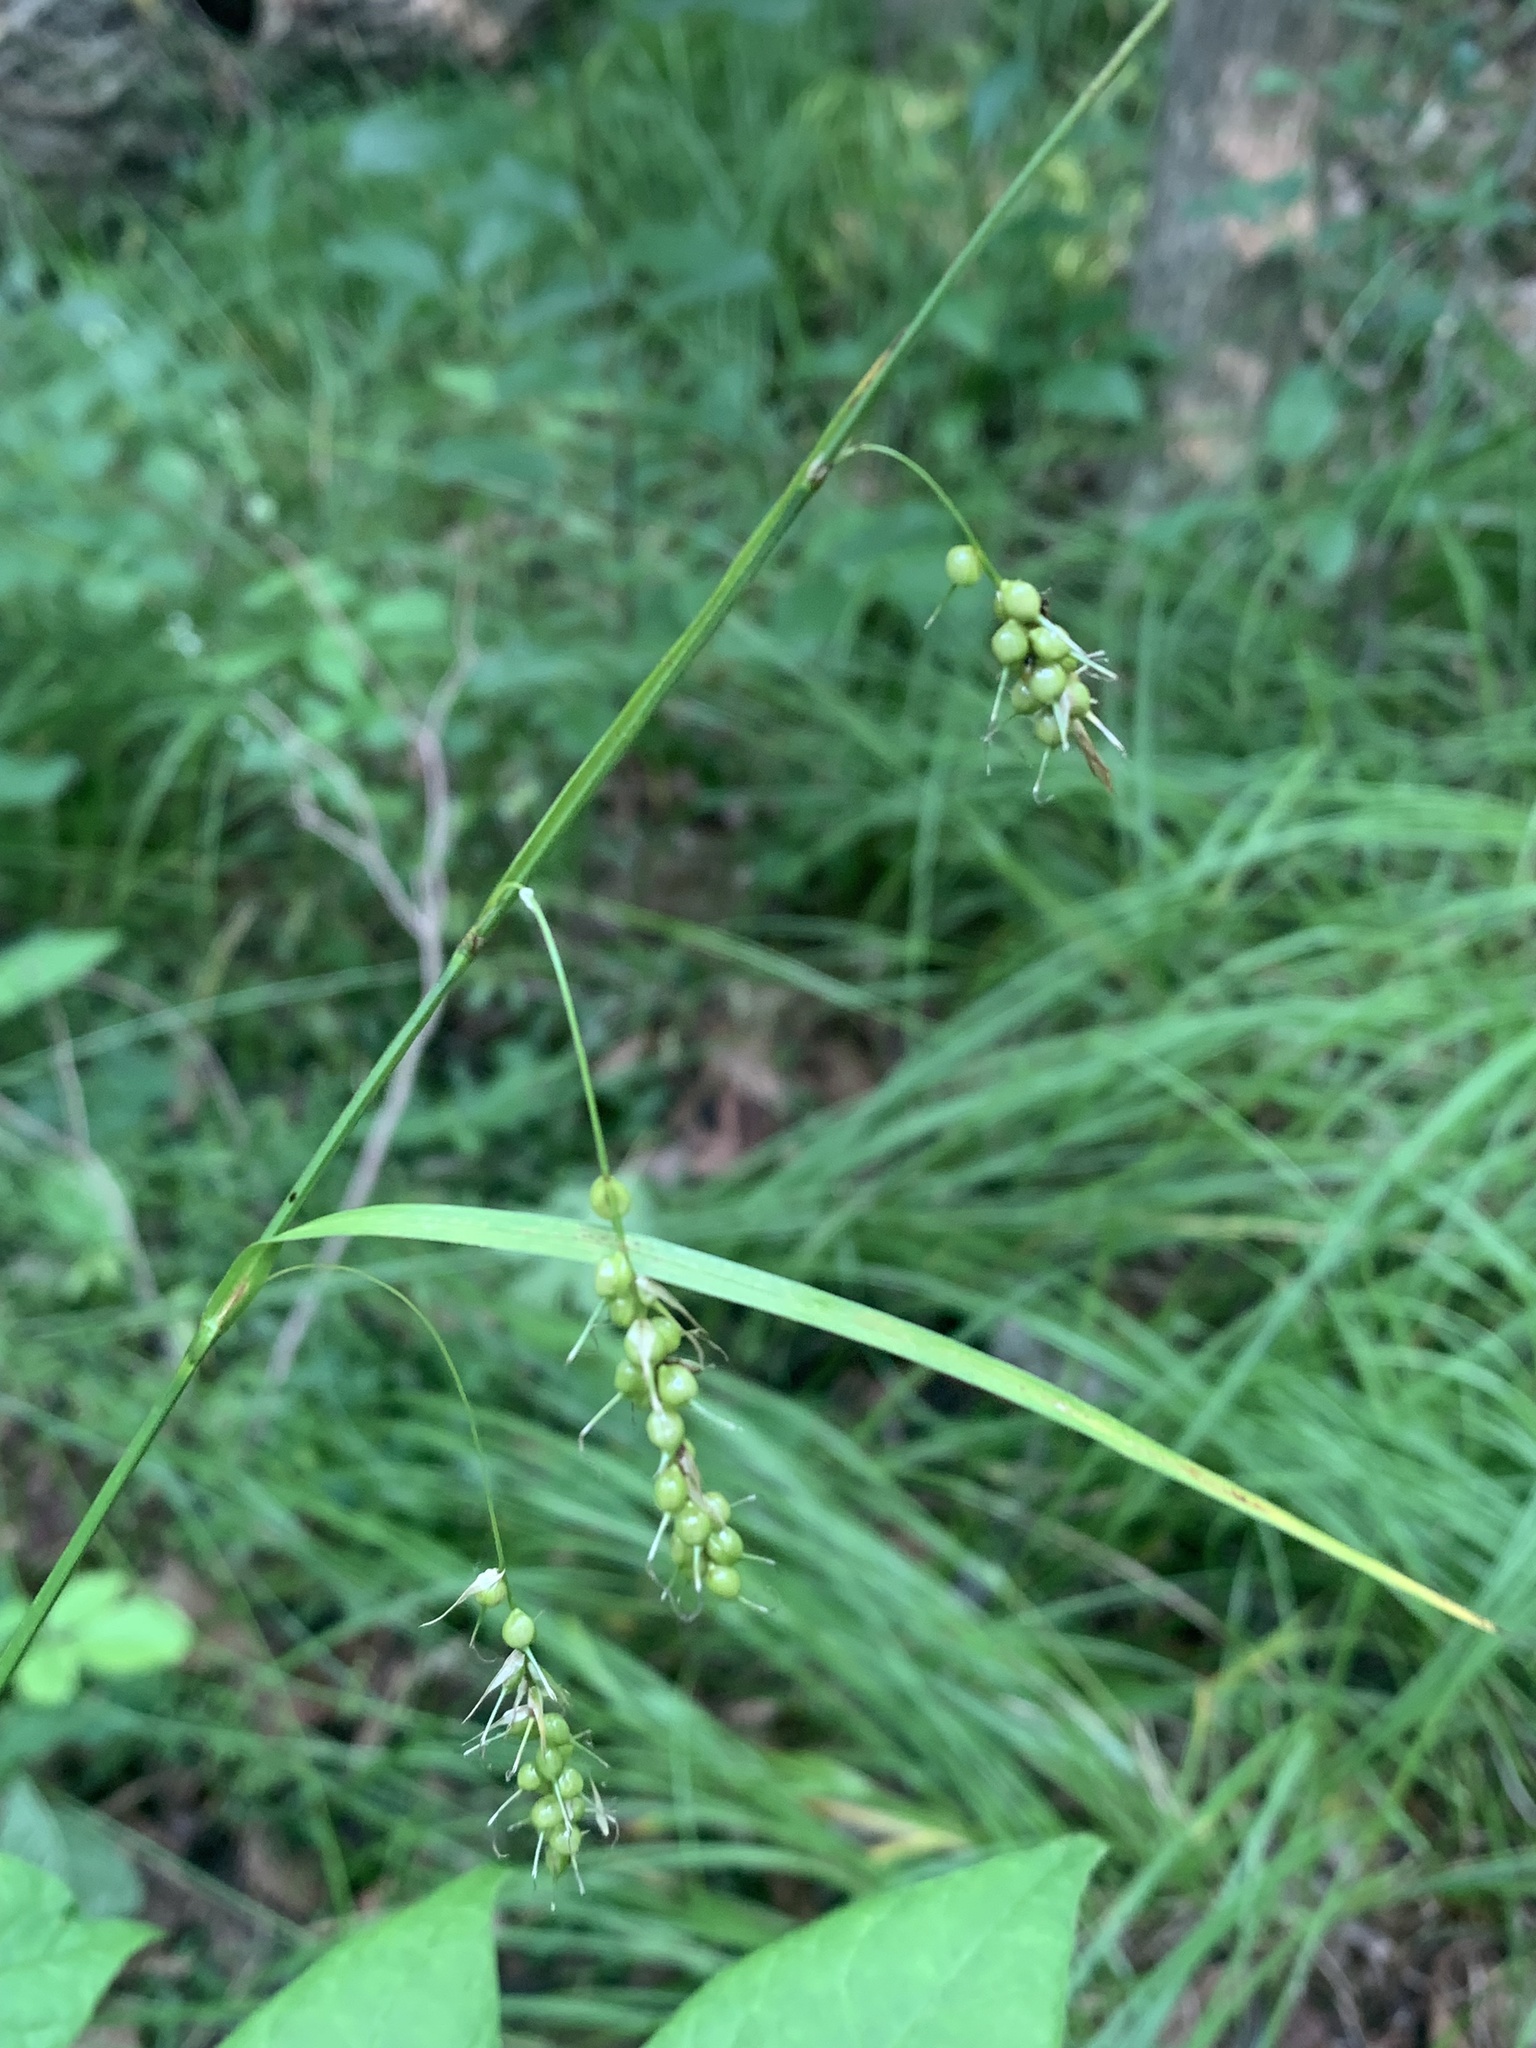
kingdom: Plantae
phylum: Tracheophyta
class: Liliopsida
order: Poales
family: Cyperaceae
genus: Carex
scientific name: Carex sprengelii
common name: Long-beaked sedge
